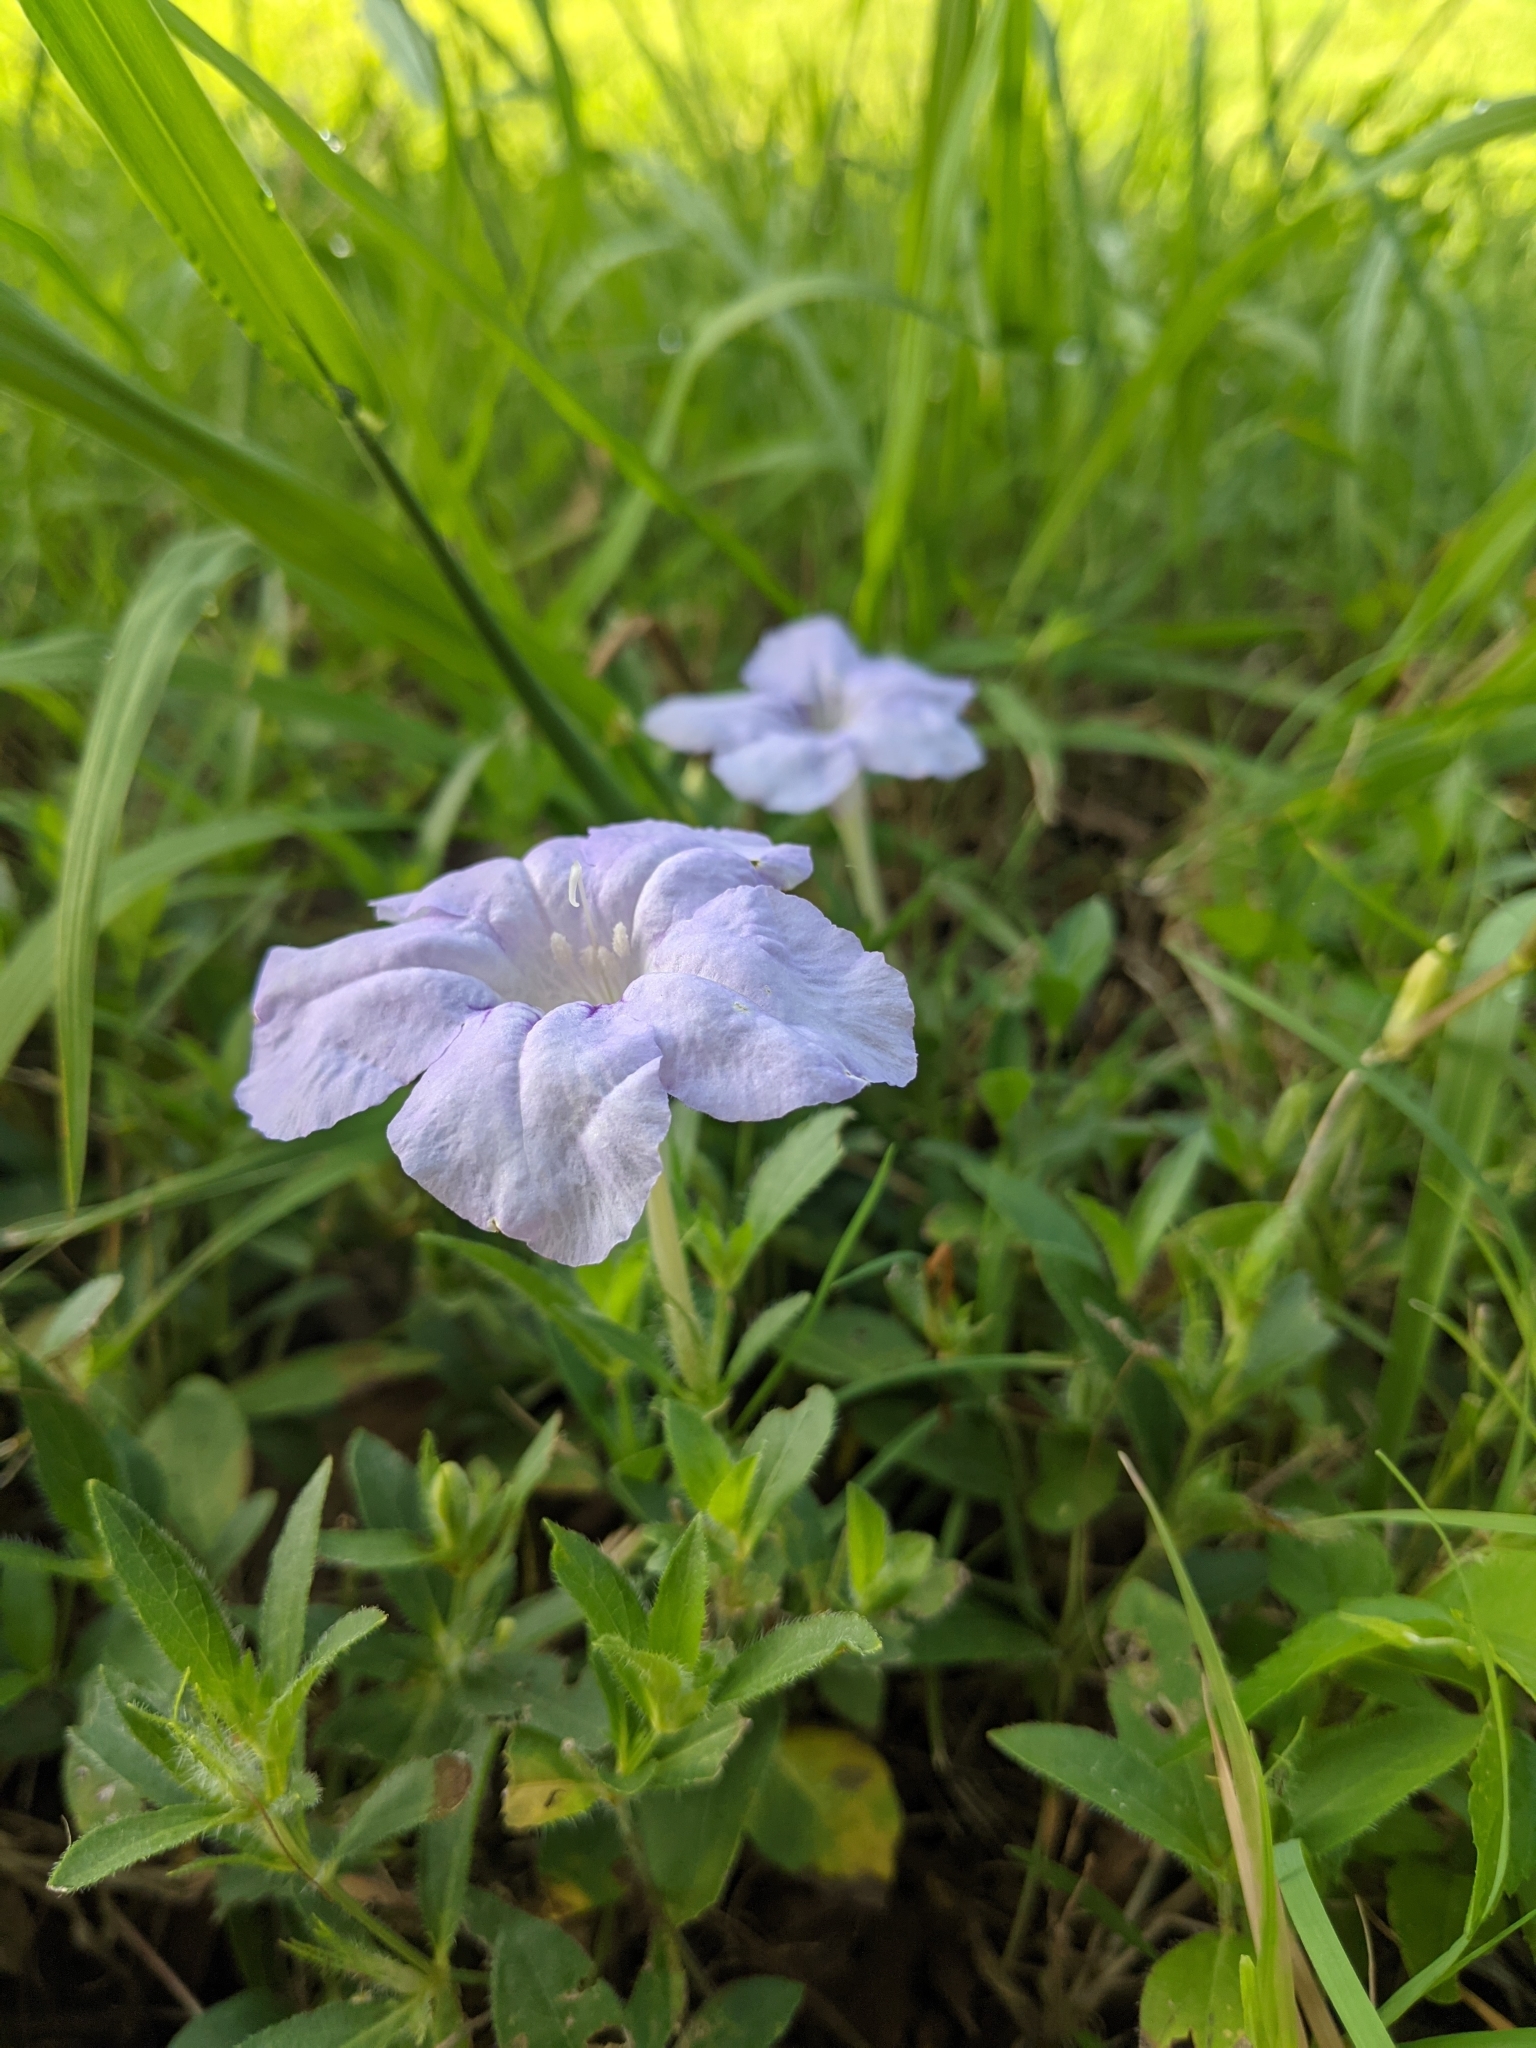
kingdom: Plantae
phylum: Tracheophyta
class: Magnoliopsida
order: Lamiales
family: Acanthaceae
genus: Ruellia
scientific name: Ruellia humilis
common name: Fringe-leaf ruellia
